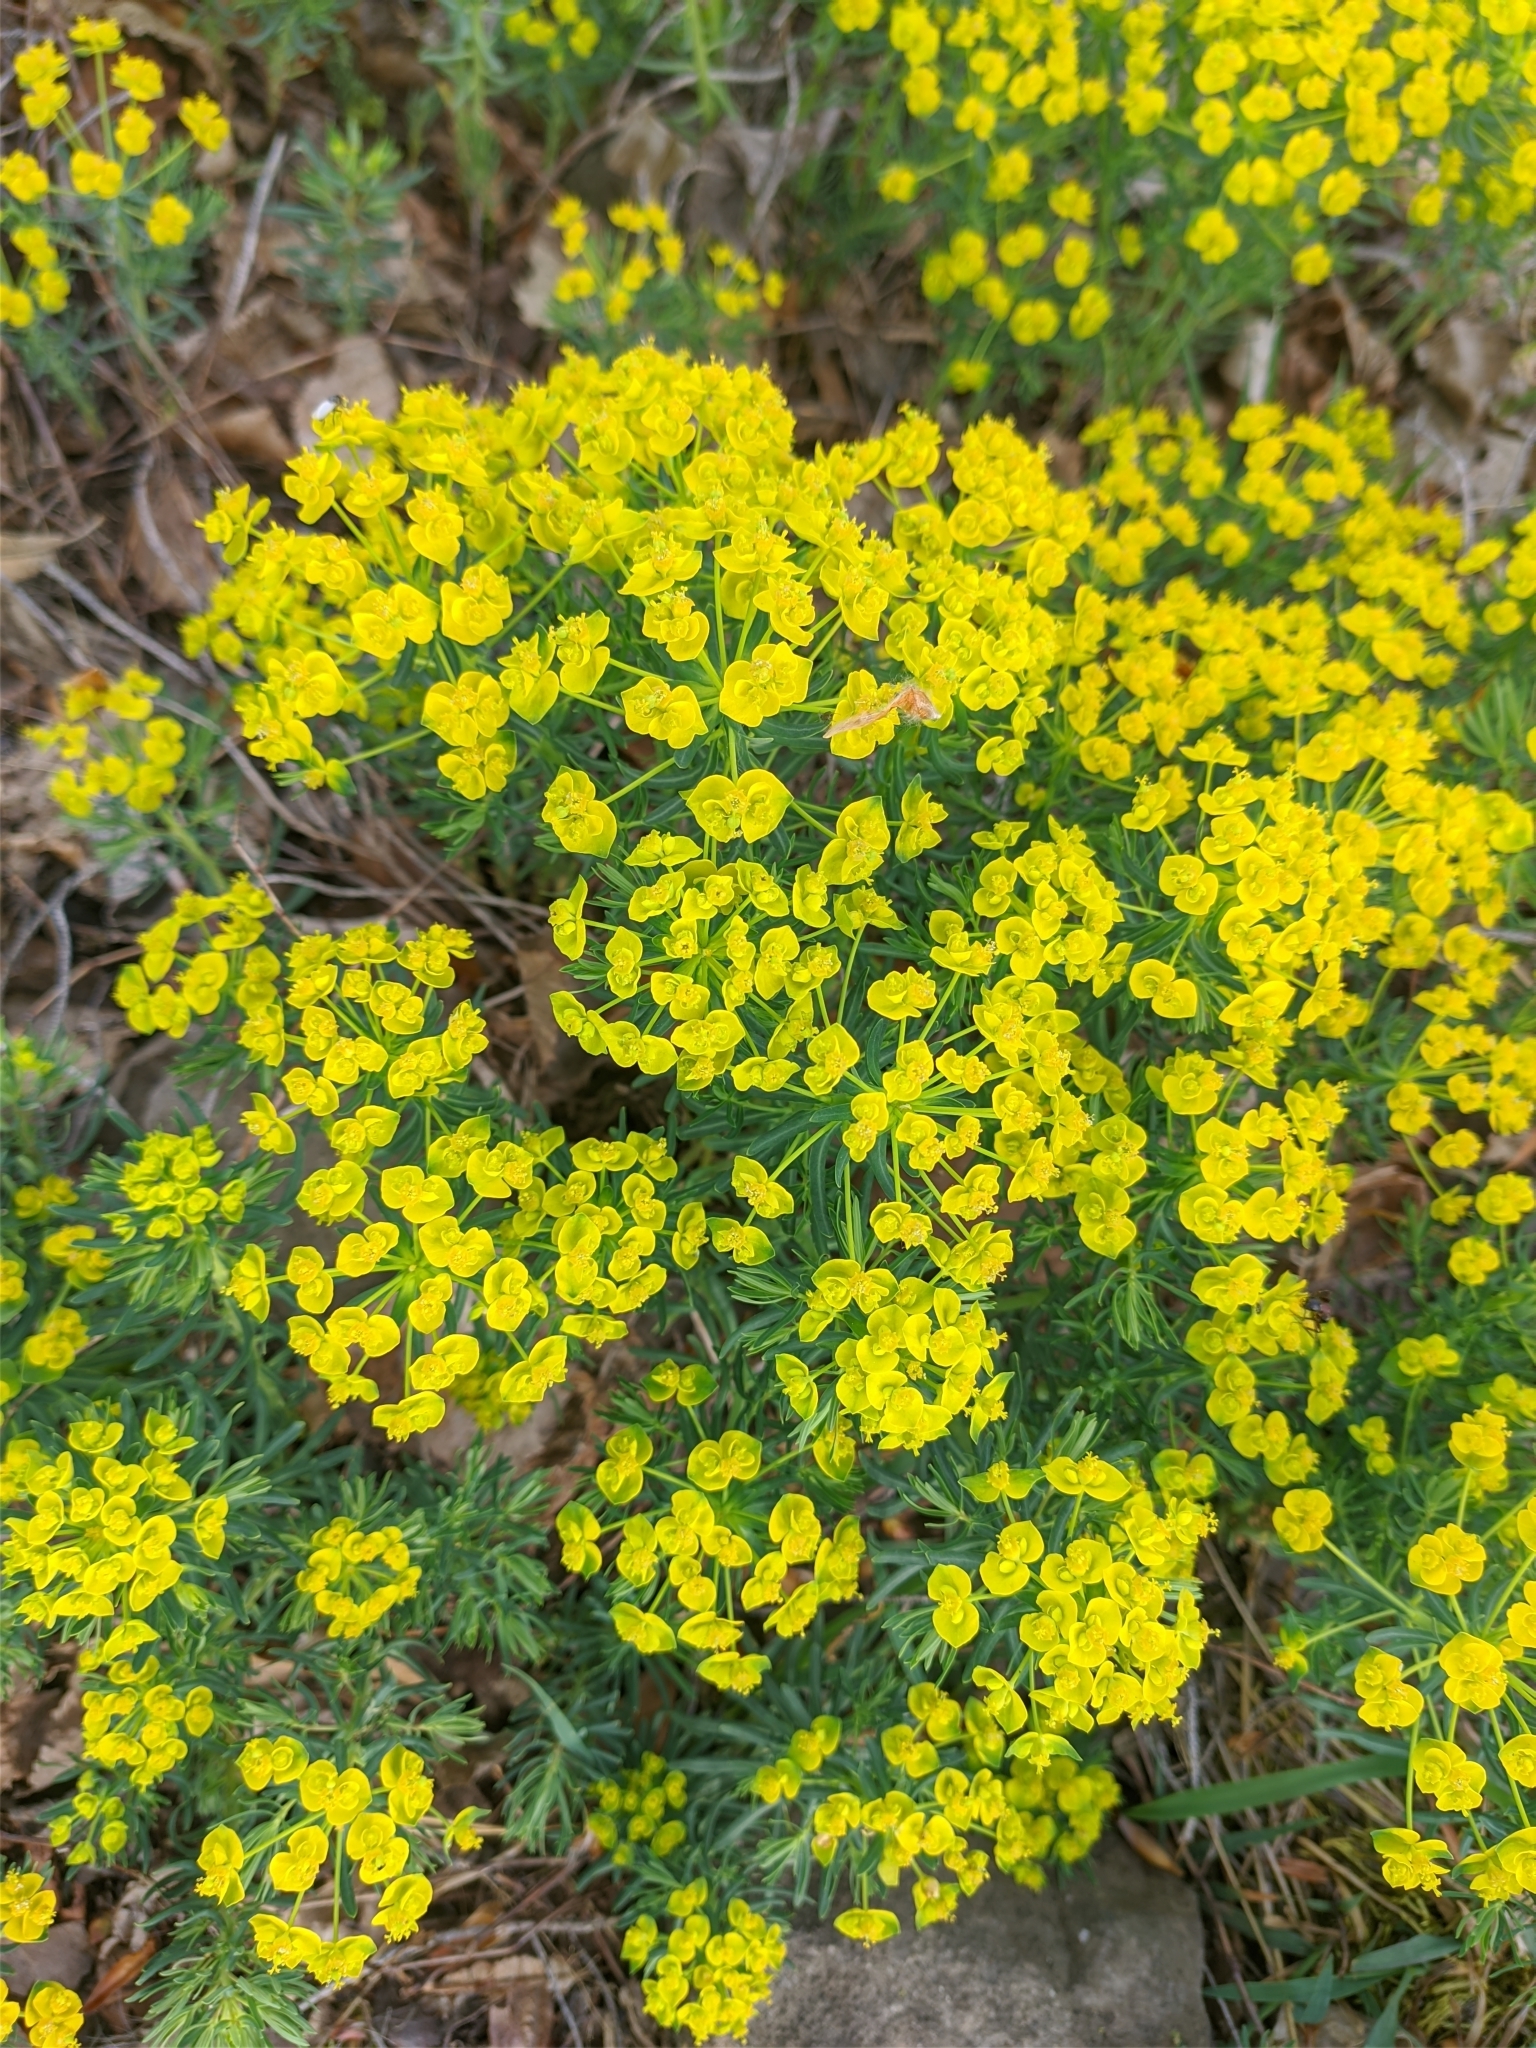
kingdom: Plantae
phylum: Tracheophyta
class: Magnoliopsida
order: Malpighiales
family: Euphorbiaceae
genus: Euphorbia
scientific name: Euphorbia cyparissias
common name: Cypress spurge
